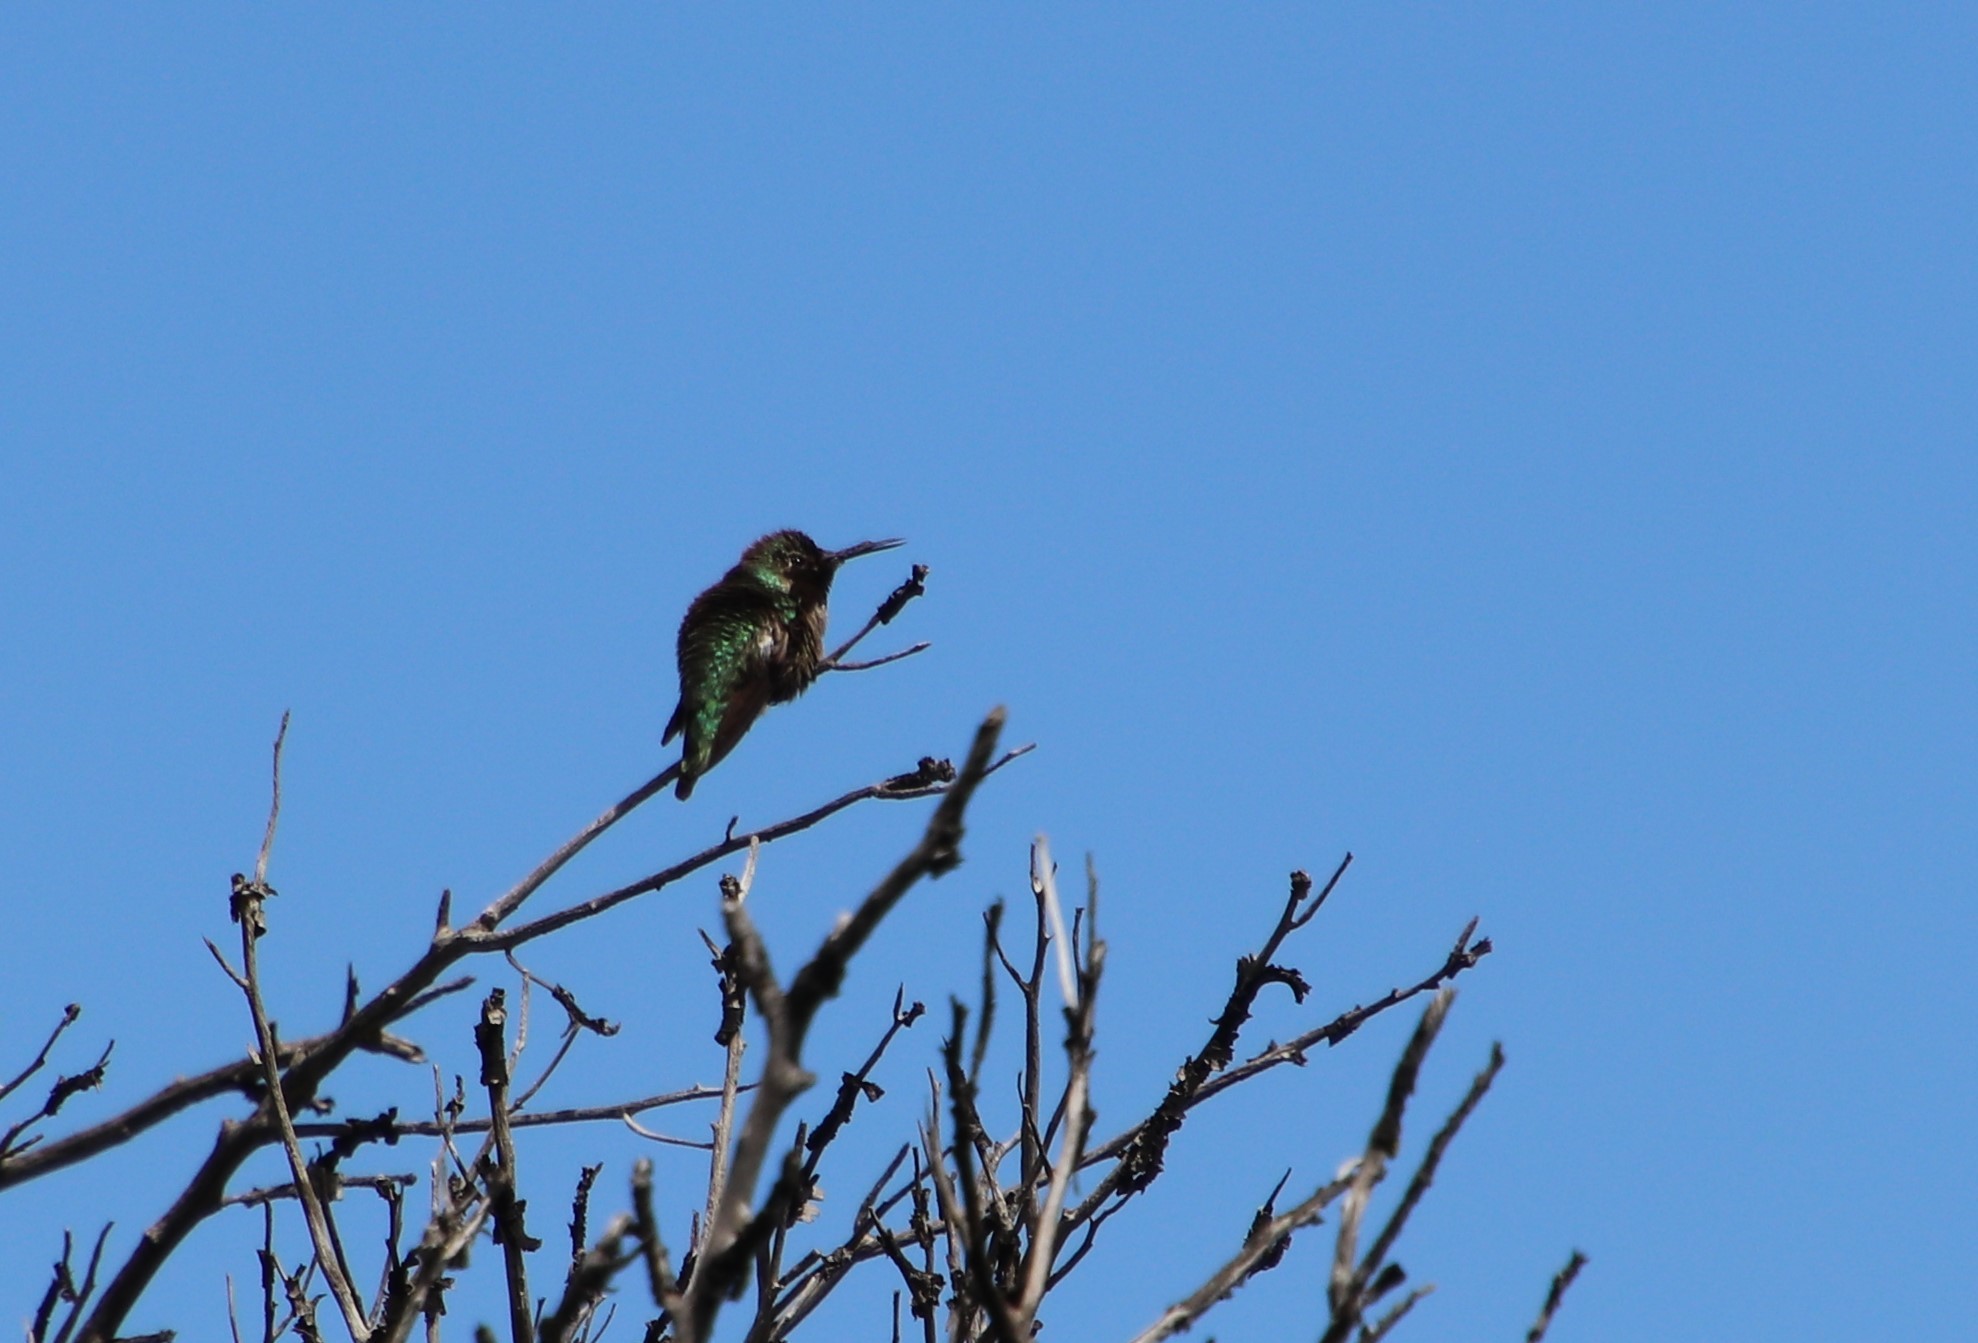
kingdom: Animalia
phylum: Chordata
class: Aves
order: Apodiformes
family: Trochilidae
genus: Calypte
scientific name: Calypte anna
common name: Anna's hummingbird
